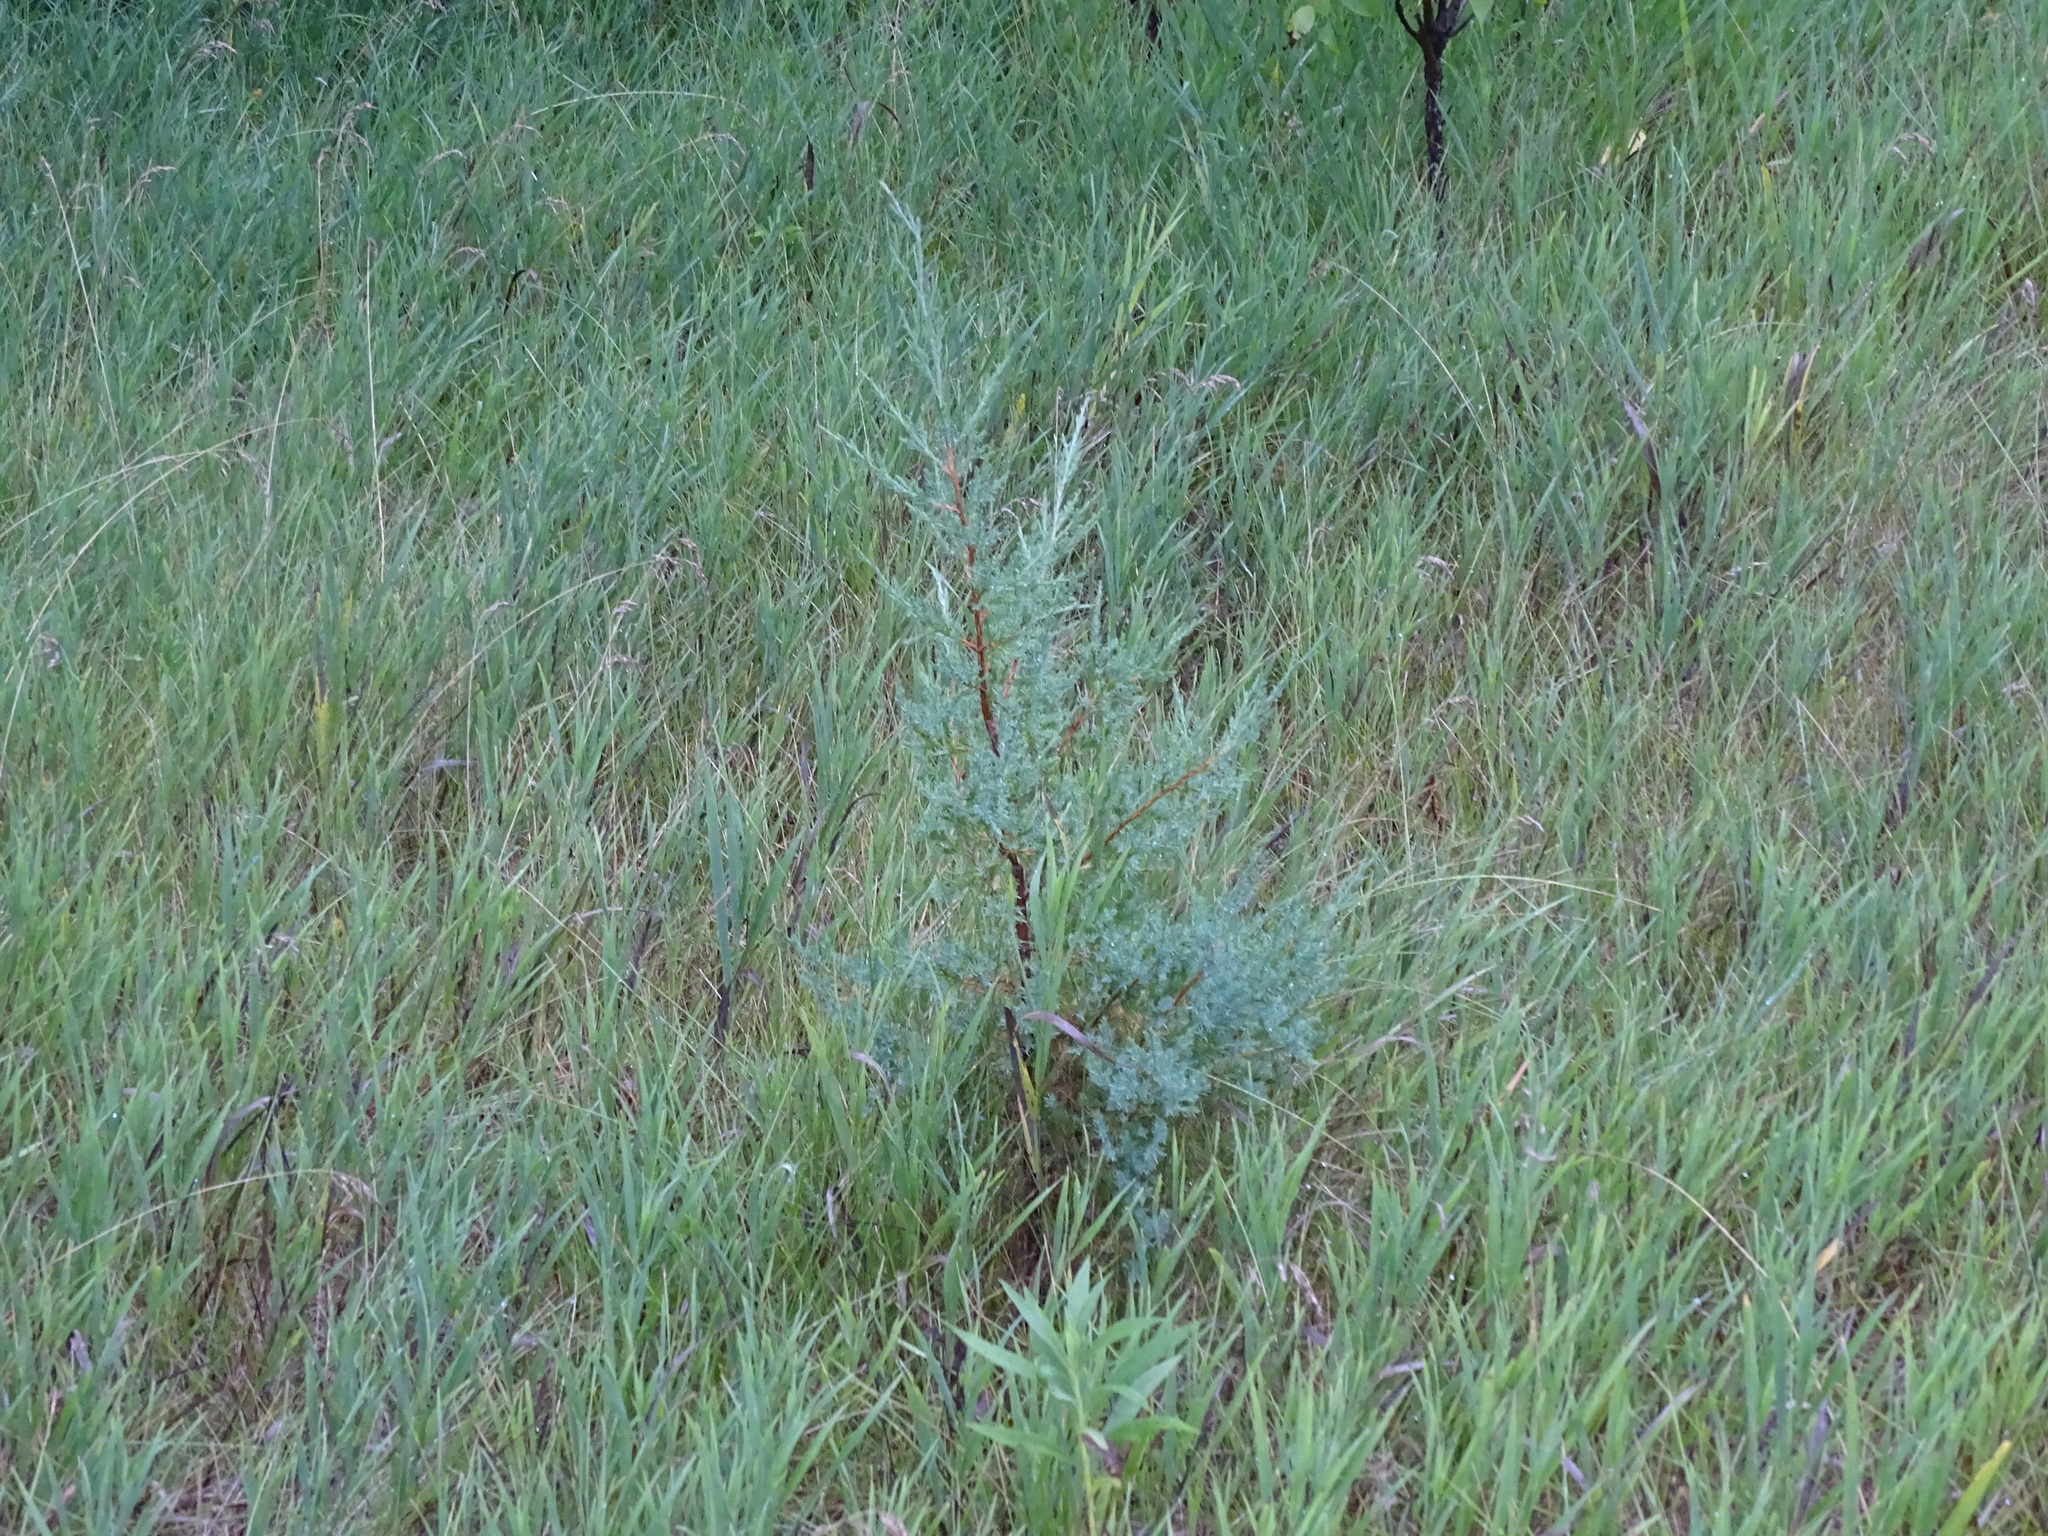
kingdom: Plantae
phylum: Tracheophyta
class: Pinopsida
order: Pinales
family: Cupressaceae
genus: Juniperus
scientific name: Juniperus virginiana
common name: Red juniper
